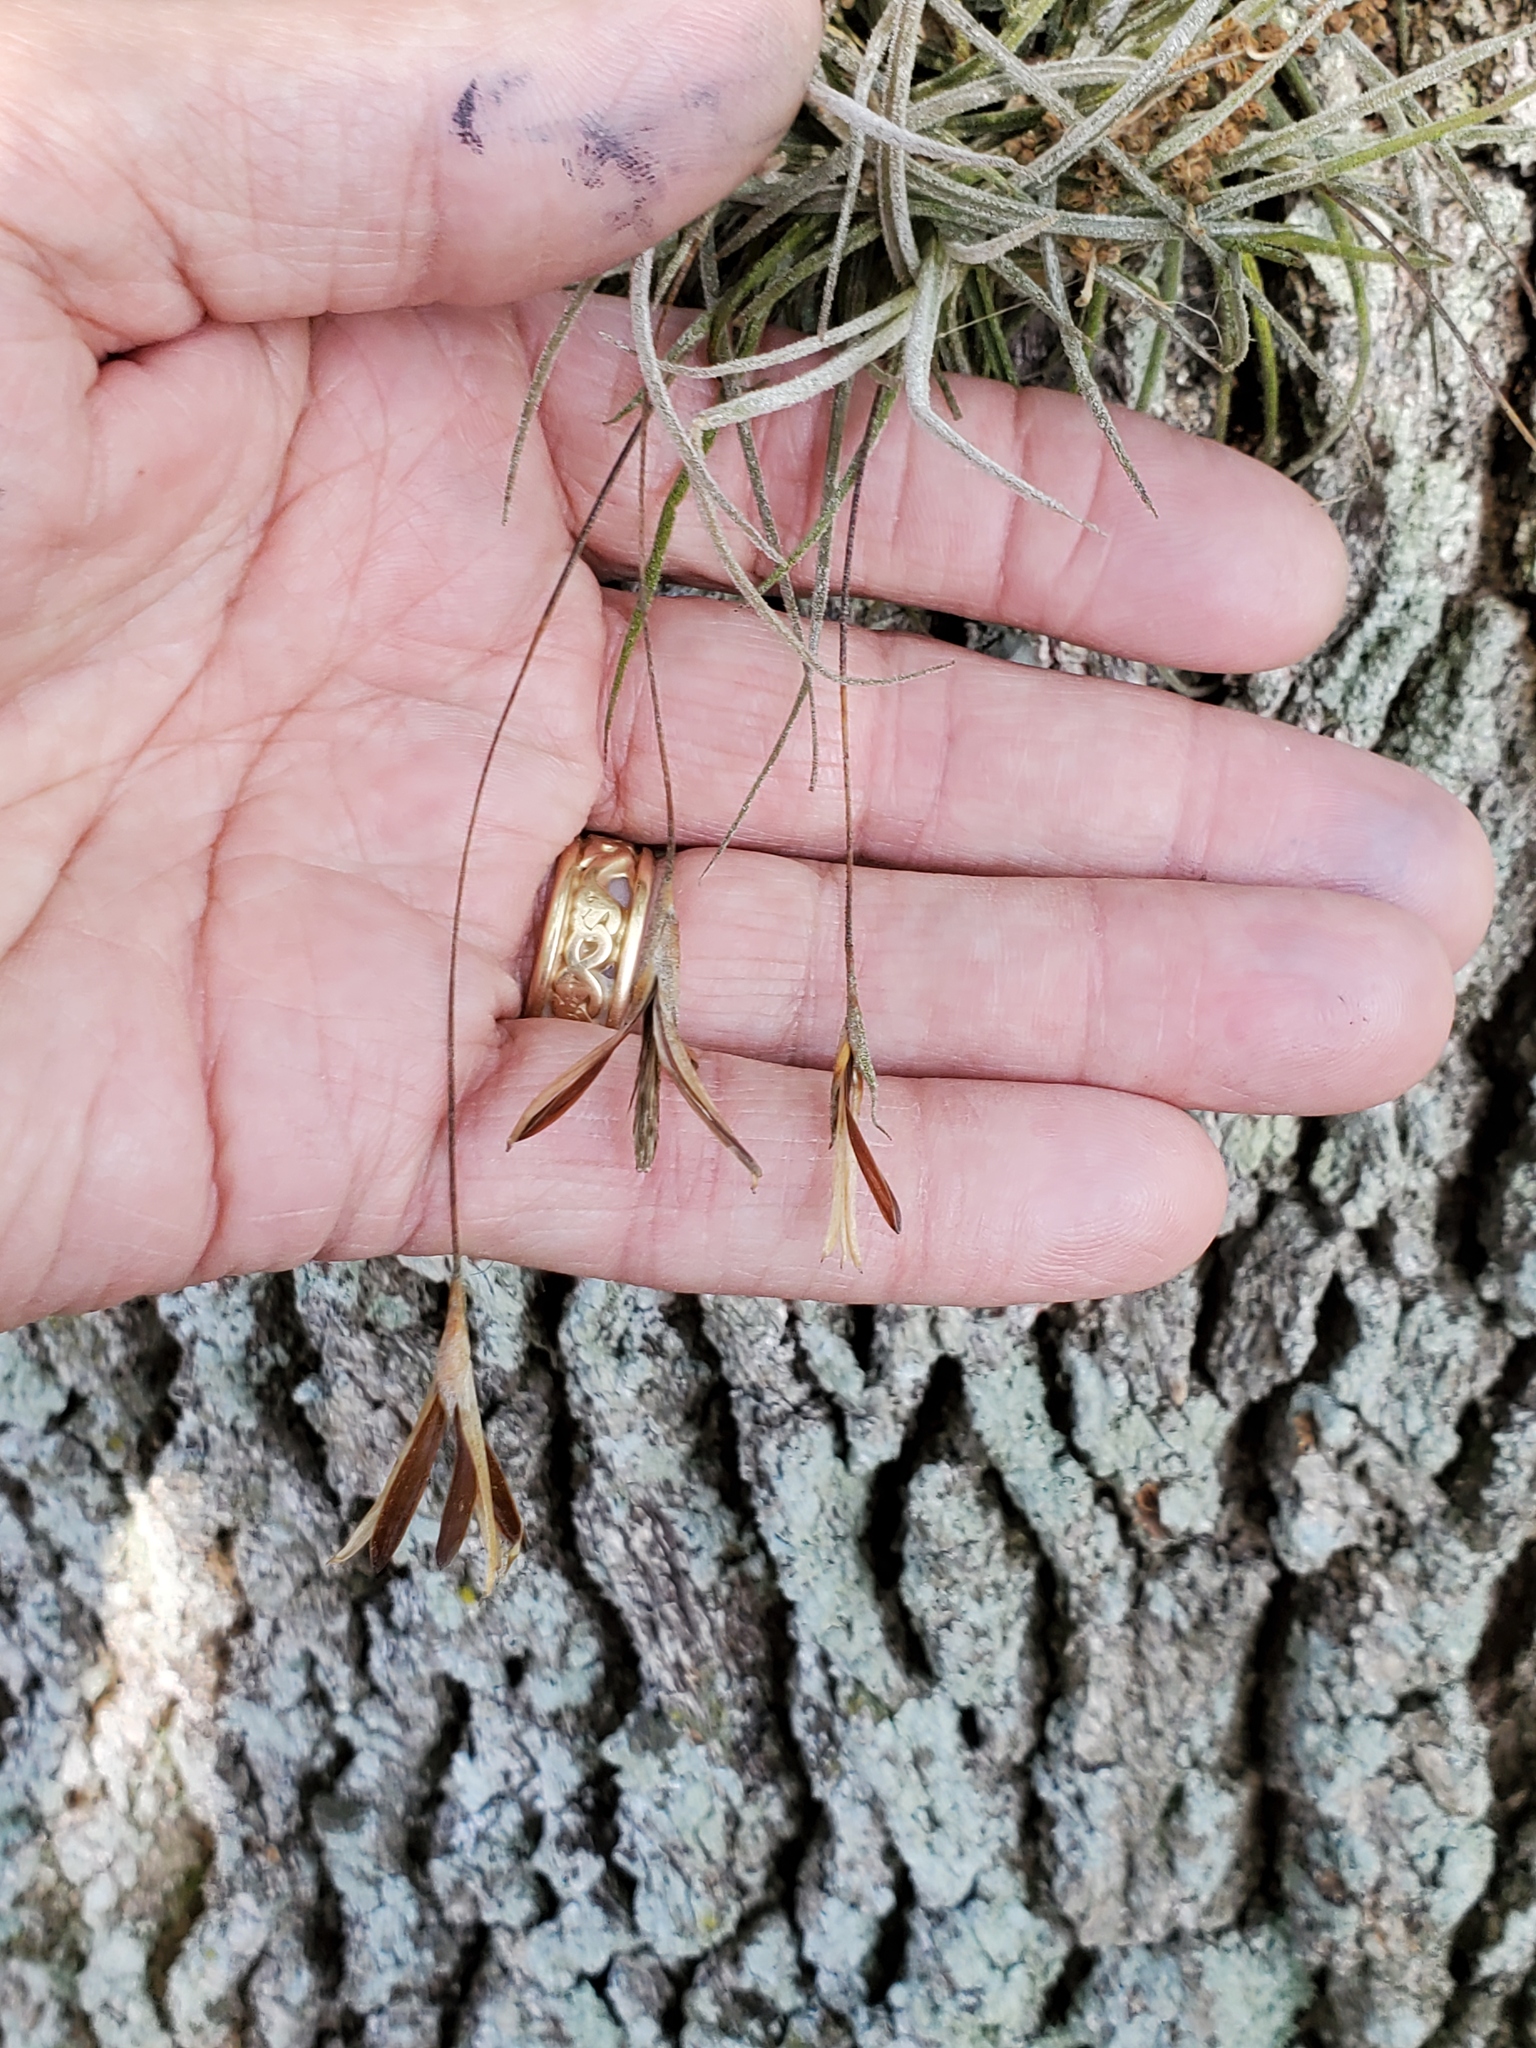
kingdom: Plantae
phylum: Tracheophyta
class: Liliopsida
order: Poales
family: Bromeliaceae
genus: Tillandsia
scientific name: Tillandsia recurvata
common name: Small ballmoss
